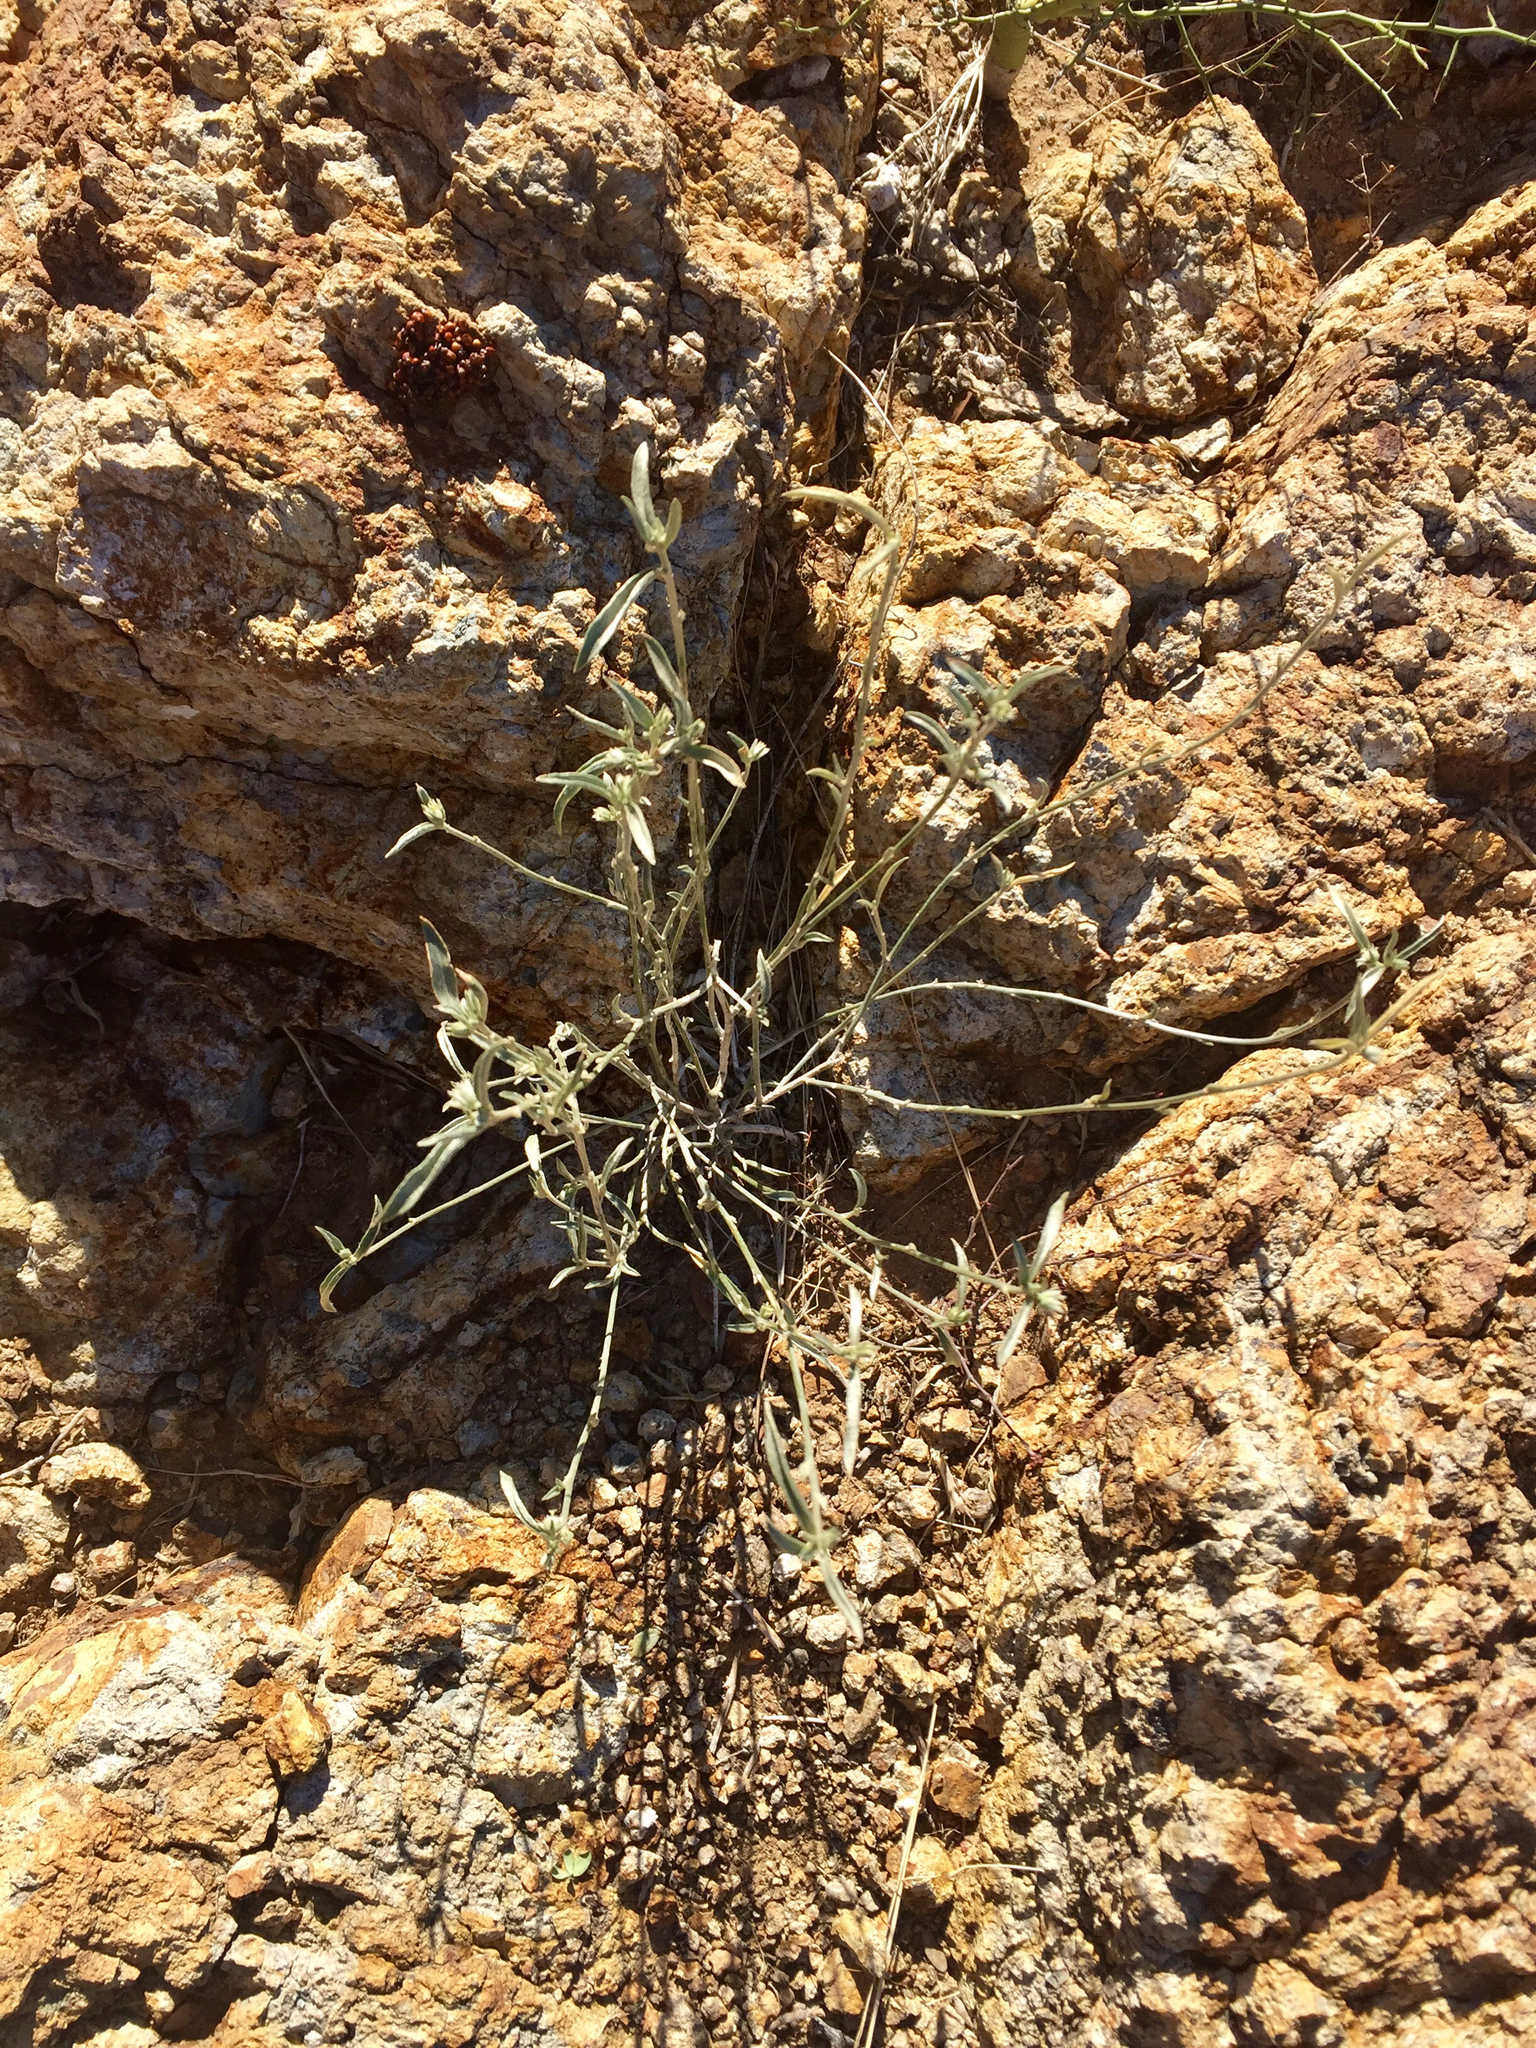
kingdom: Plantae
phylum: Tracheophyta
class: Magnoliopsida
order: Malpighiales
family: Euphorbiaceae
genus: Ditaxis
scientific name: Ditaxis lanceolata
